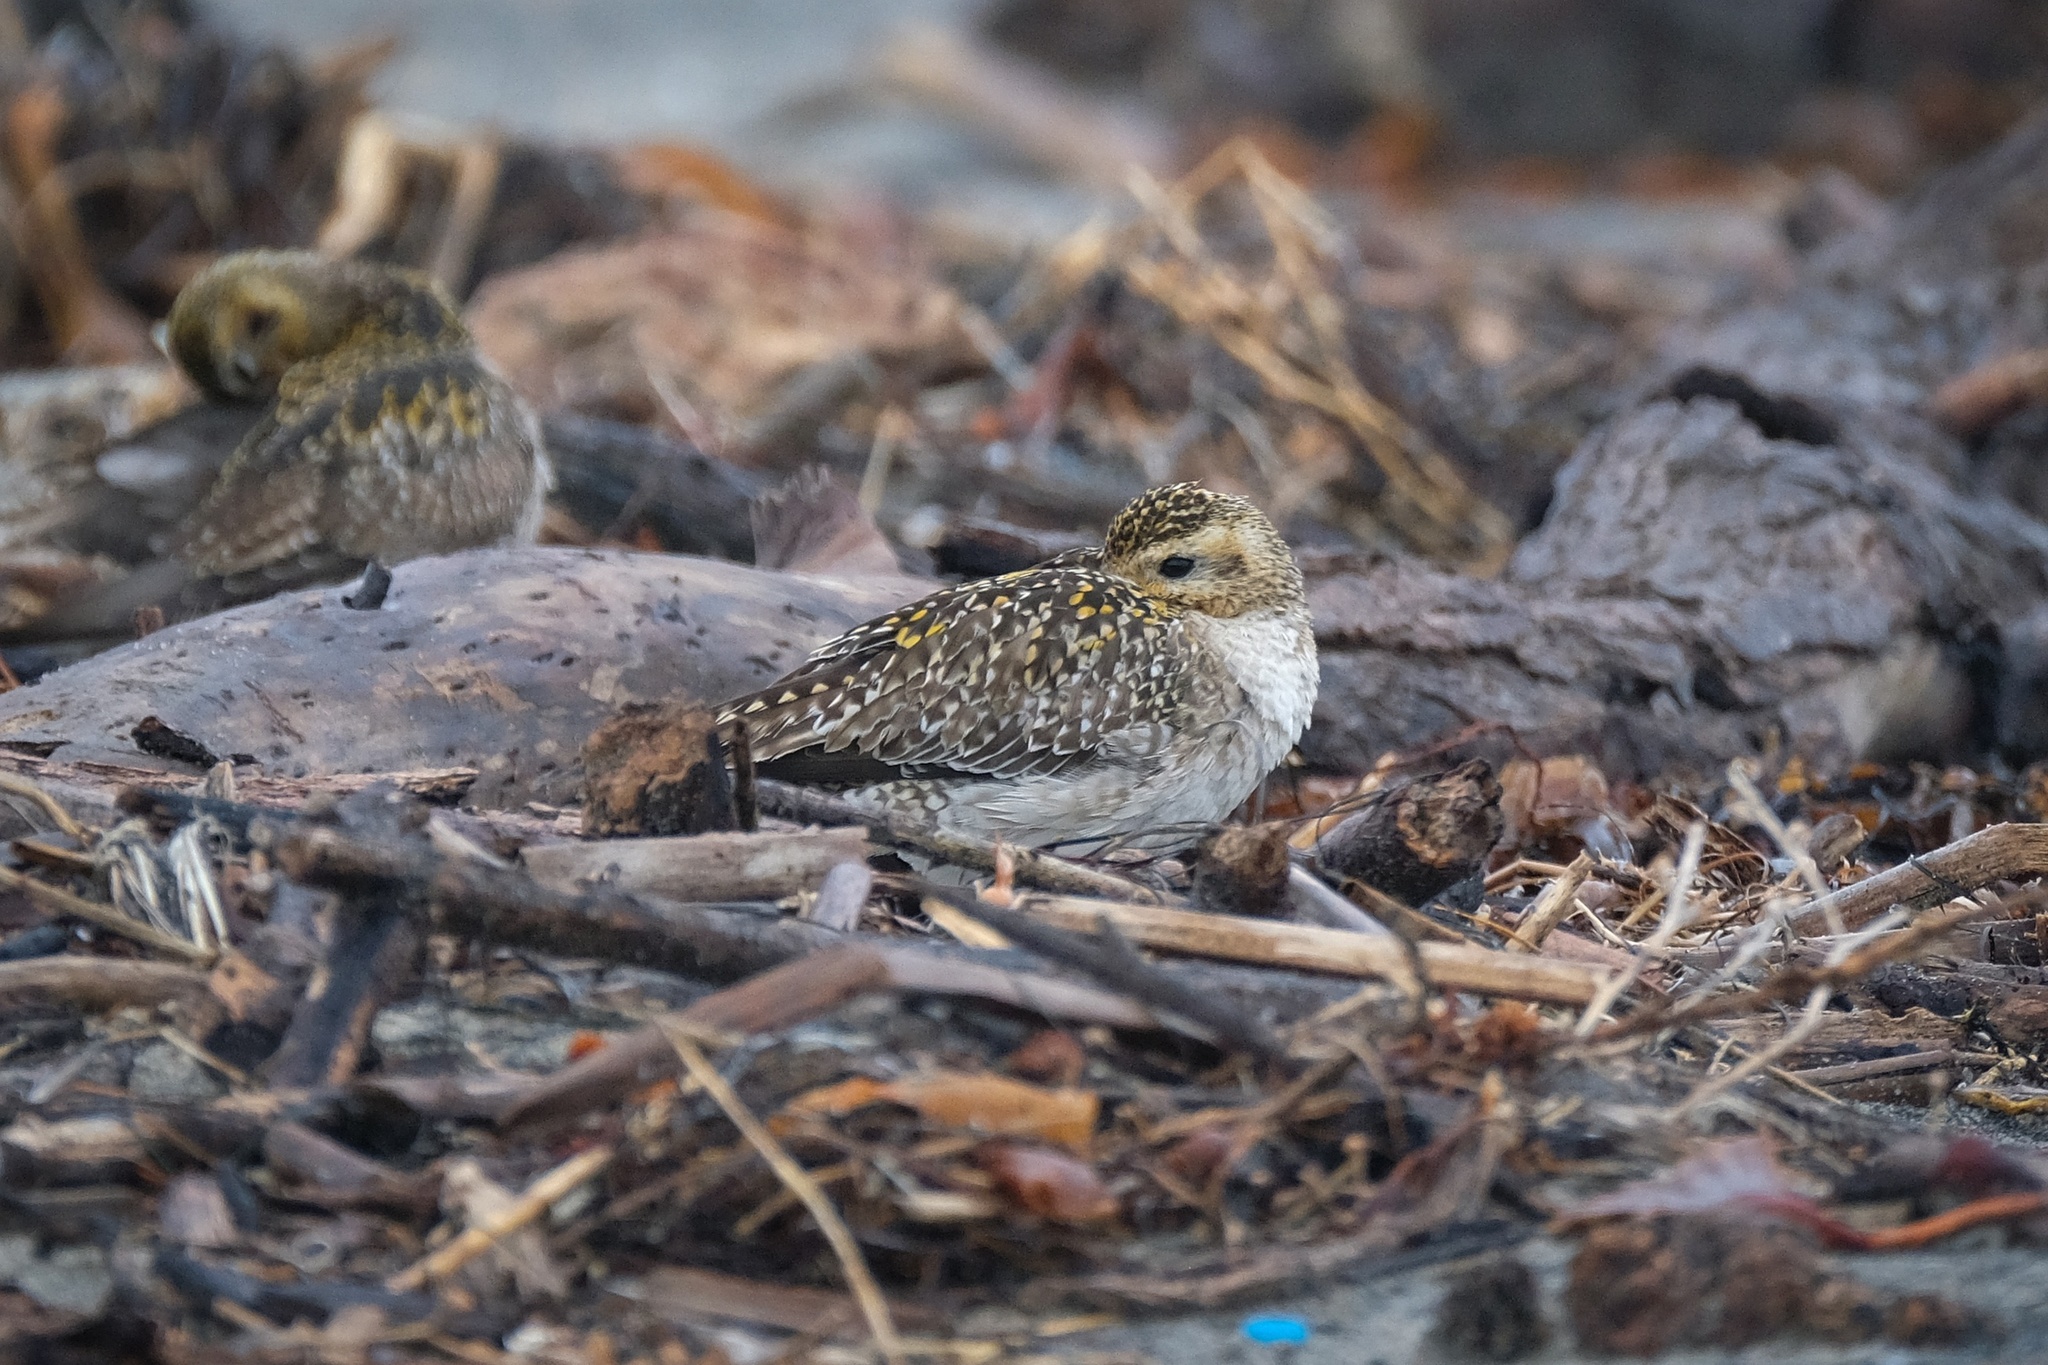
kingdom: Animalia
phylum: Chordata
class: Aves
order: Charadriiformes
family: Charadriidae
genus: Pluvialis
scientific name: Pluvialis fulva
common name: Pacific golden plover
